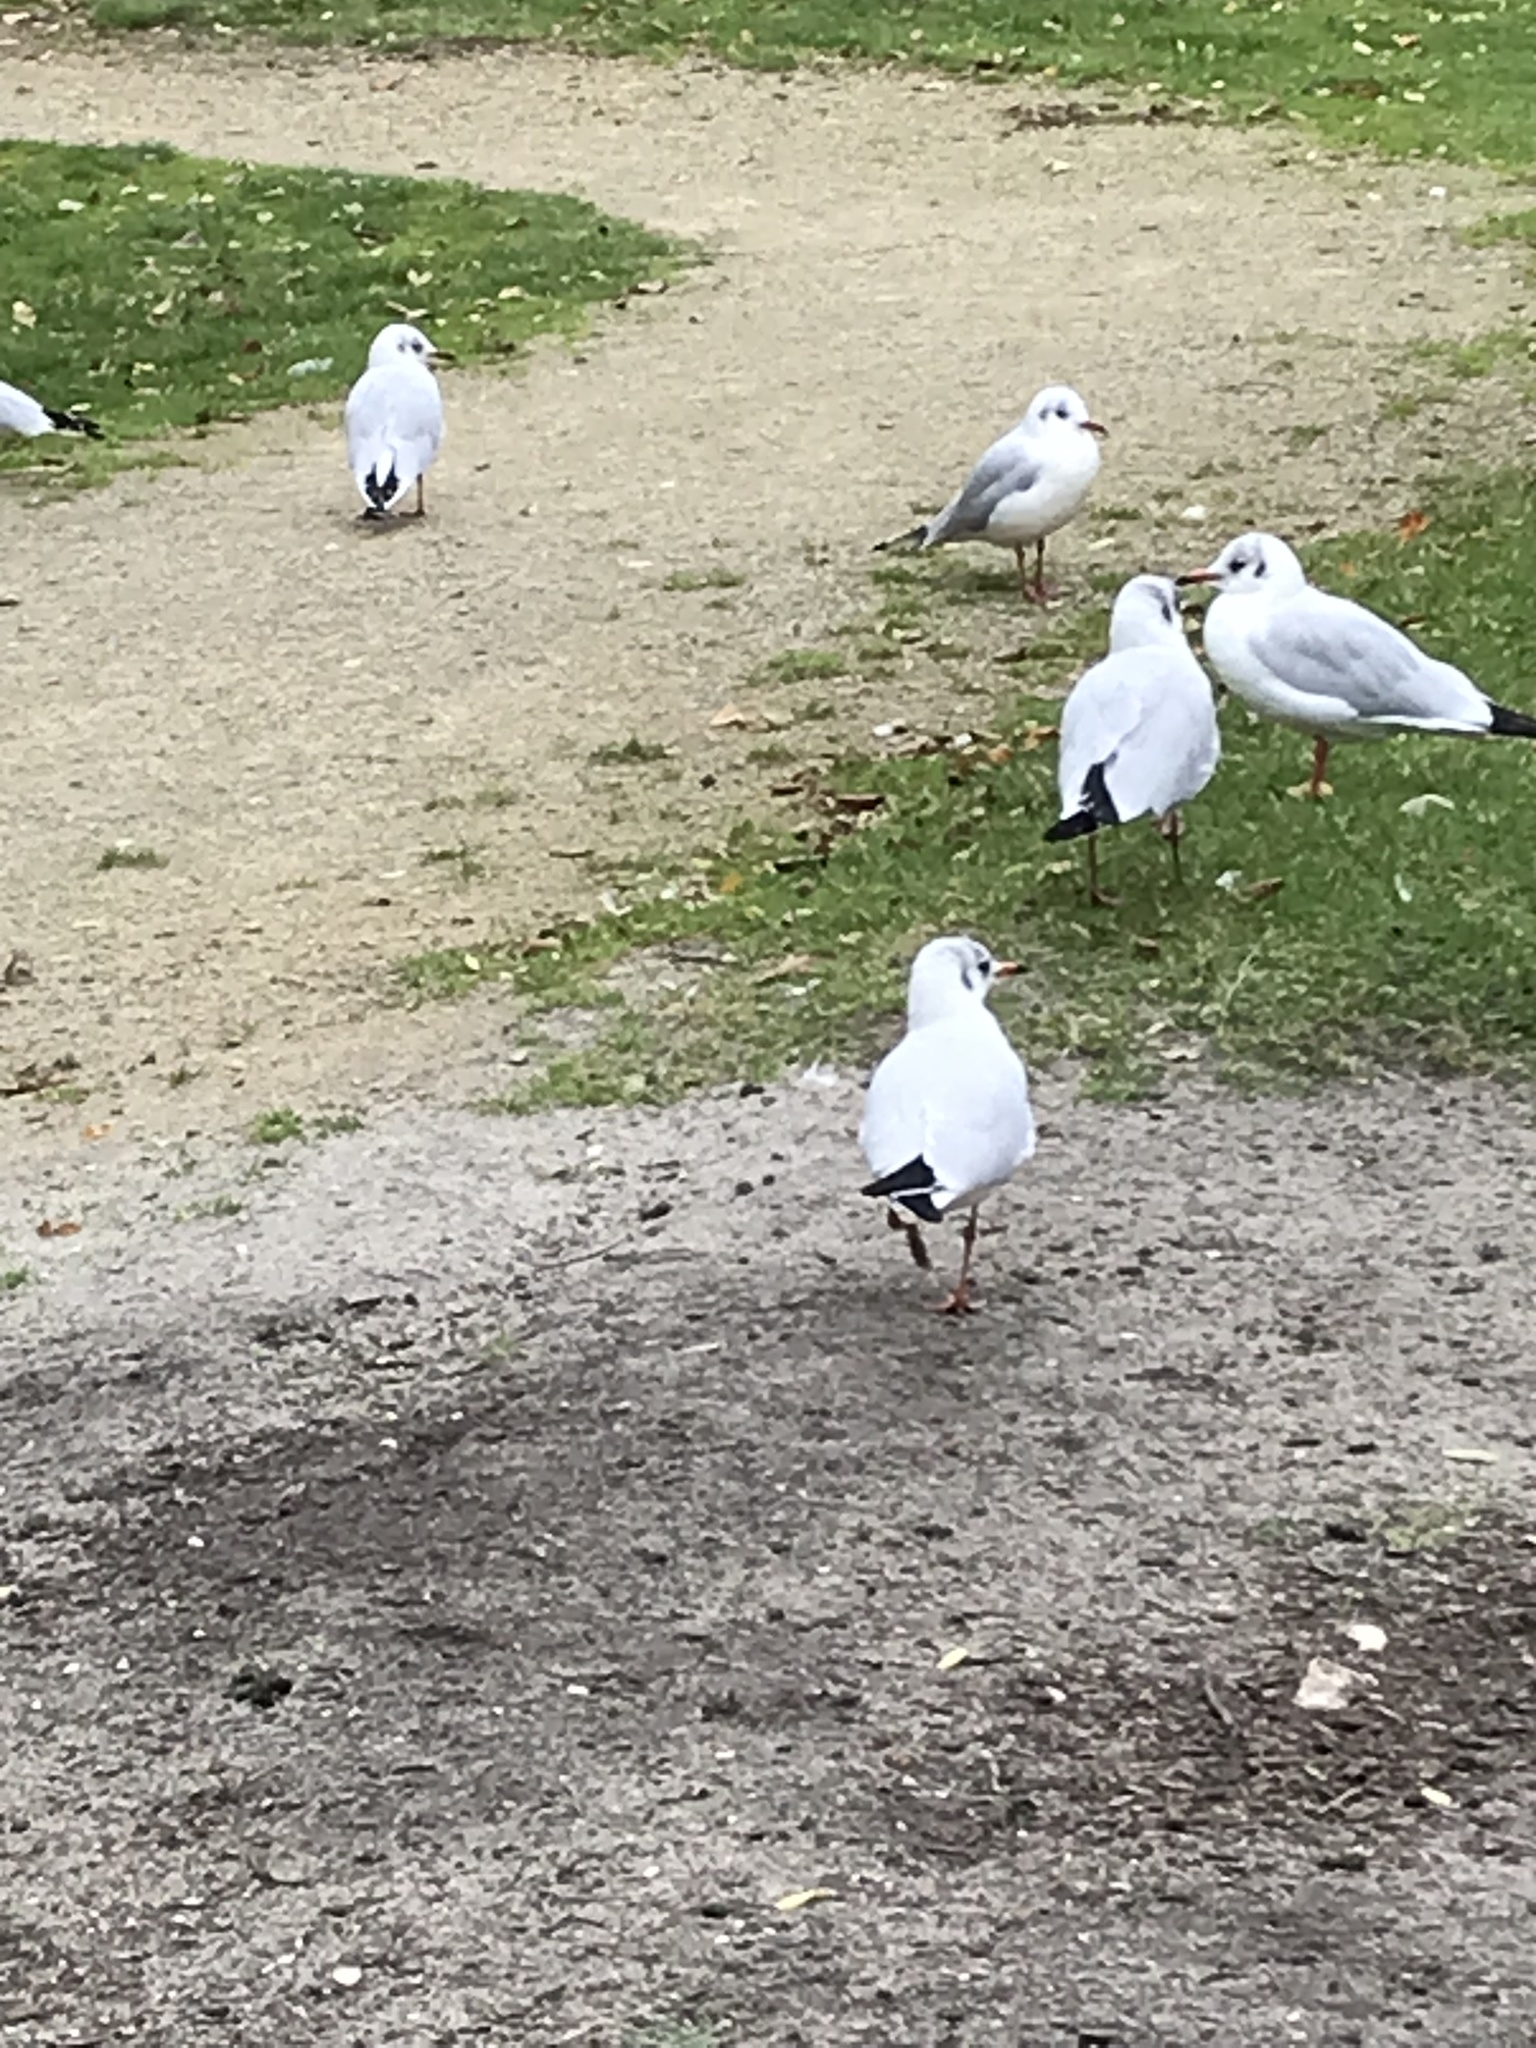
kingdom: Animalia
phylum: Chordata
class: Aves
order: Charadriiformes
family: Laridae
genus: Chroicocephalus
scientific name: Chroicocephalus ridibundus
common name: Black-headed gull
